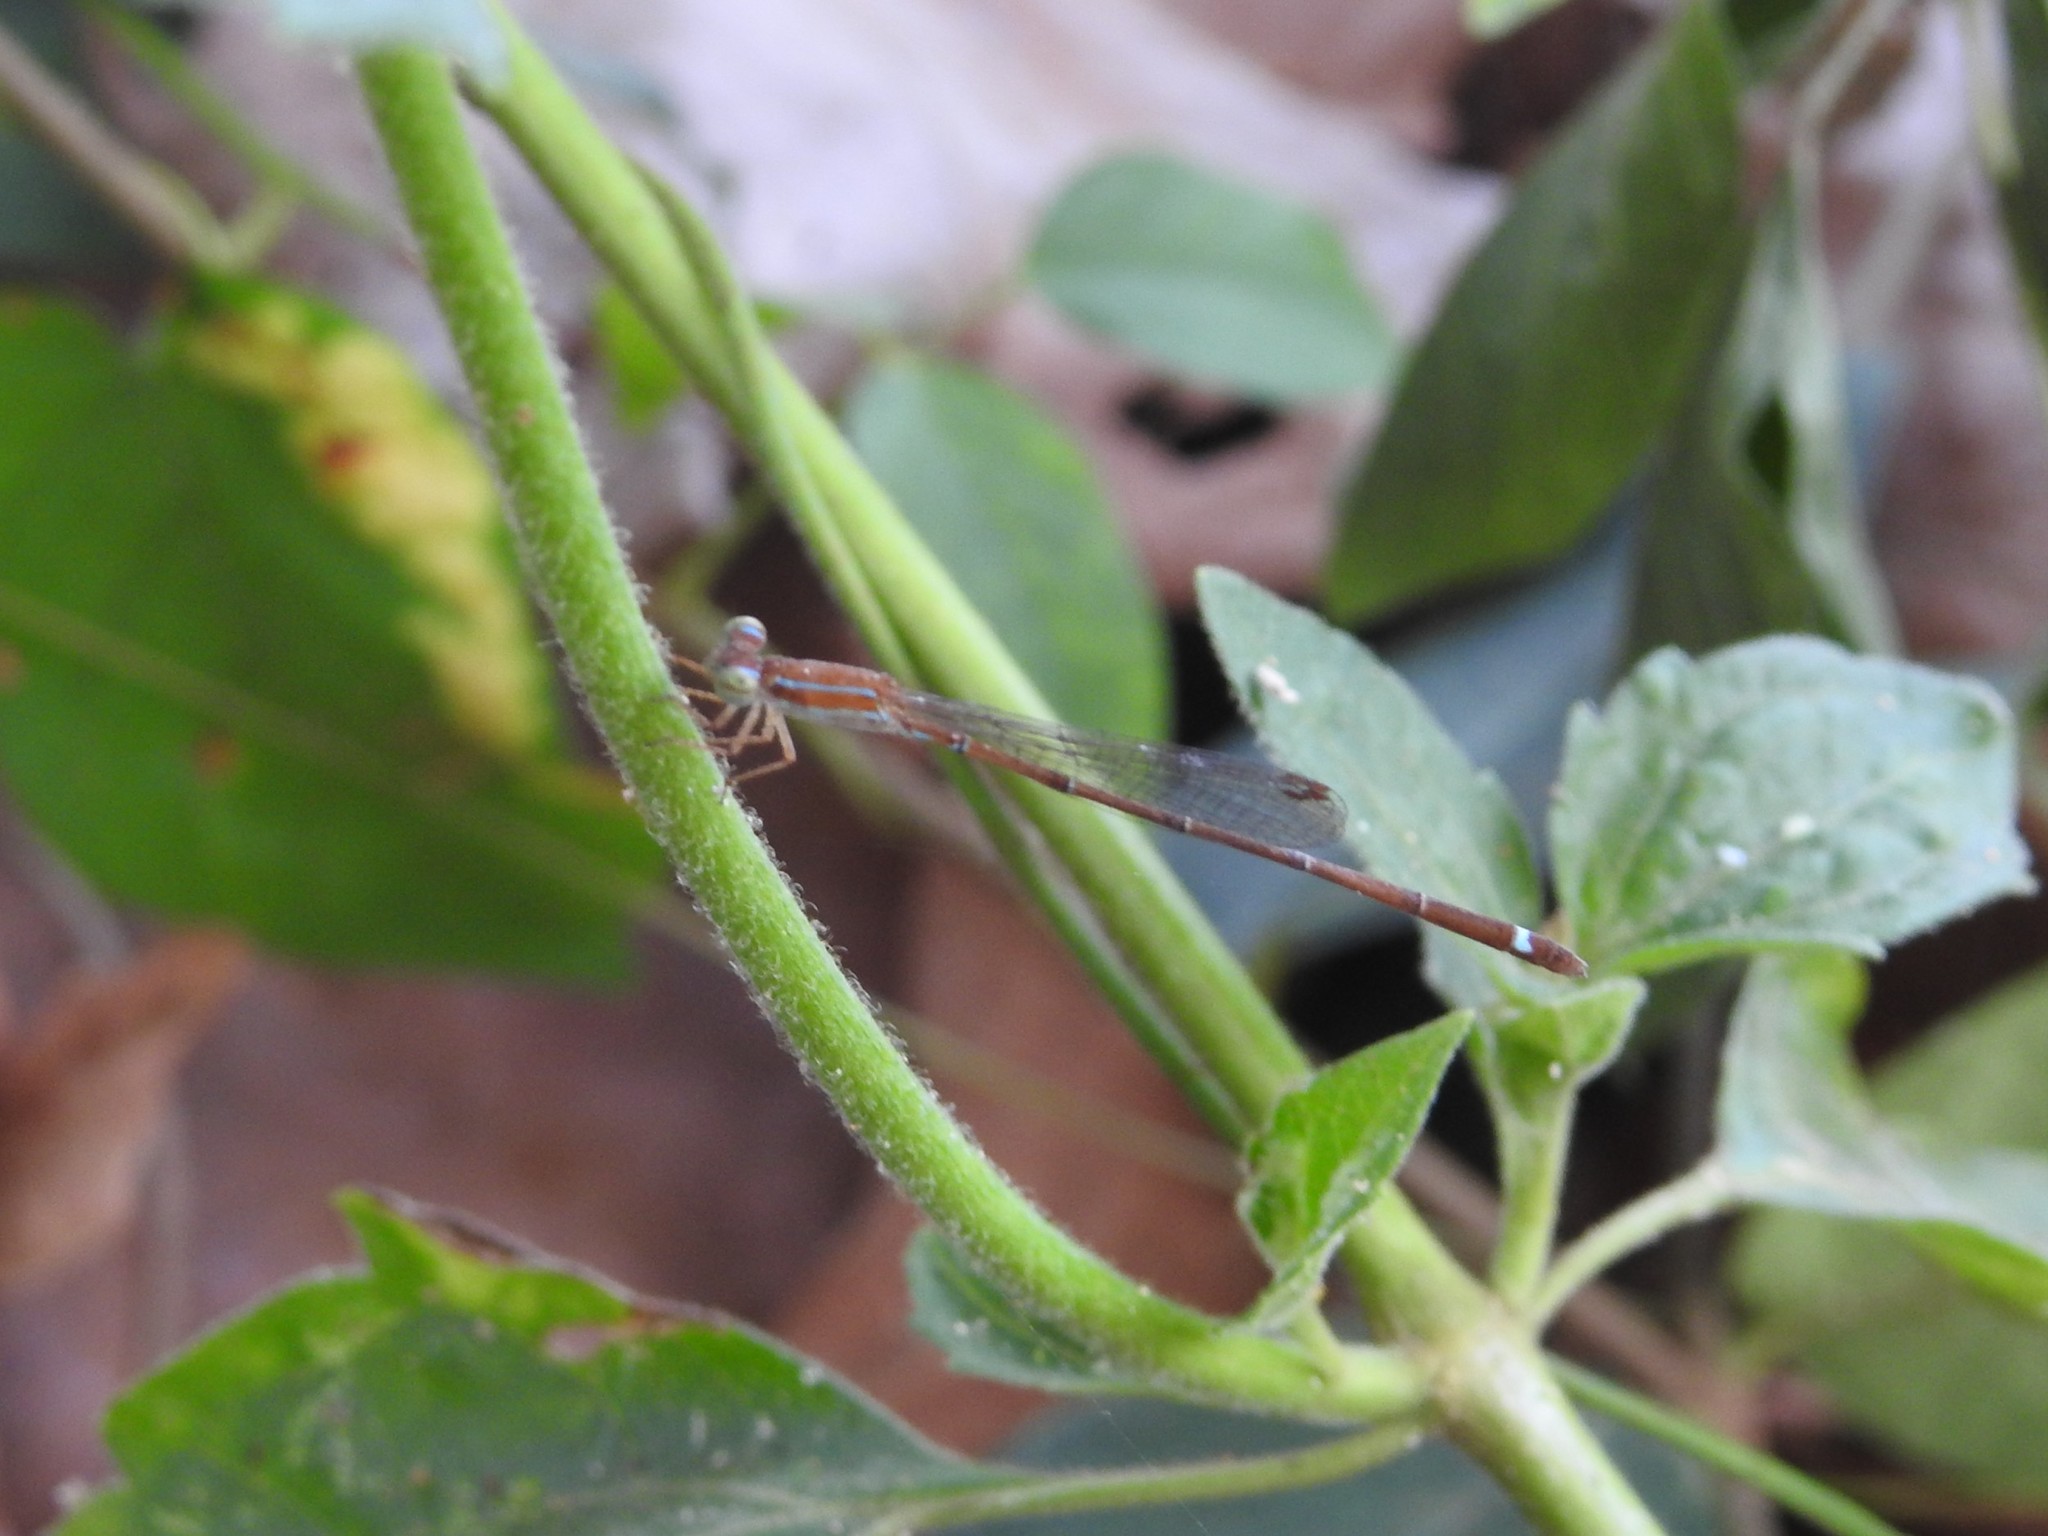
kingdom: Animalia
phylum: Arthropoda
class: Insecta
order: Odonata
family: Coenagrionidae
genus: Mortonagrion
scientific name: Mortonagrion varralli
